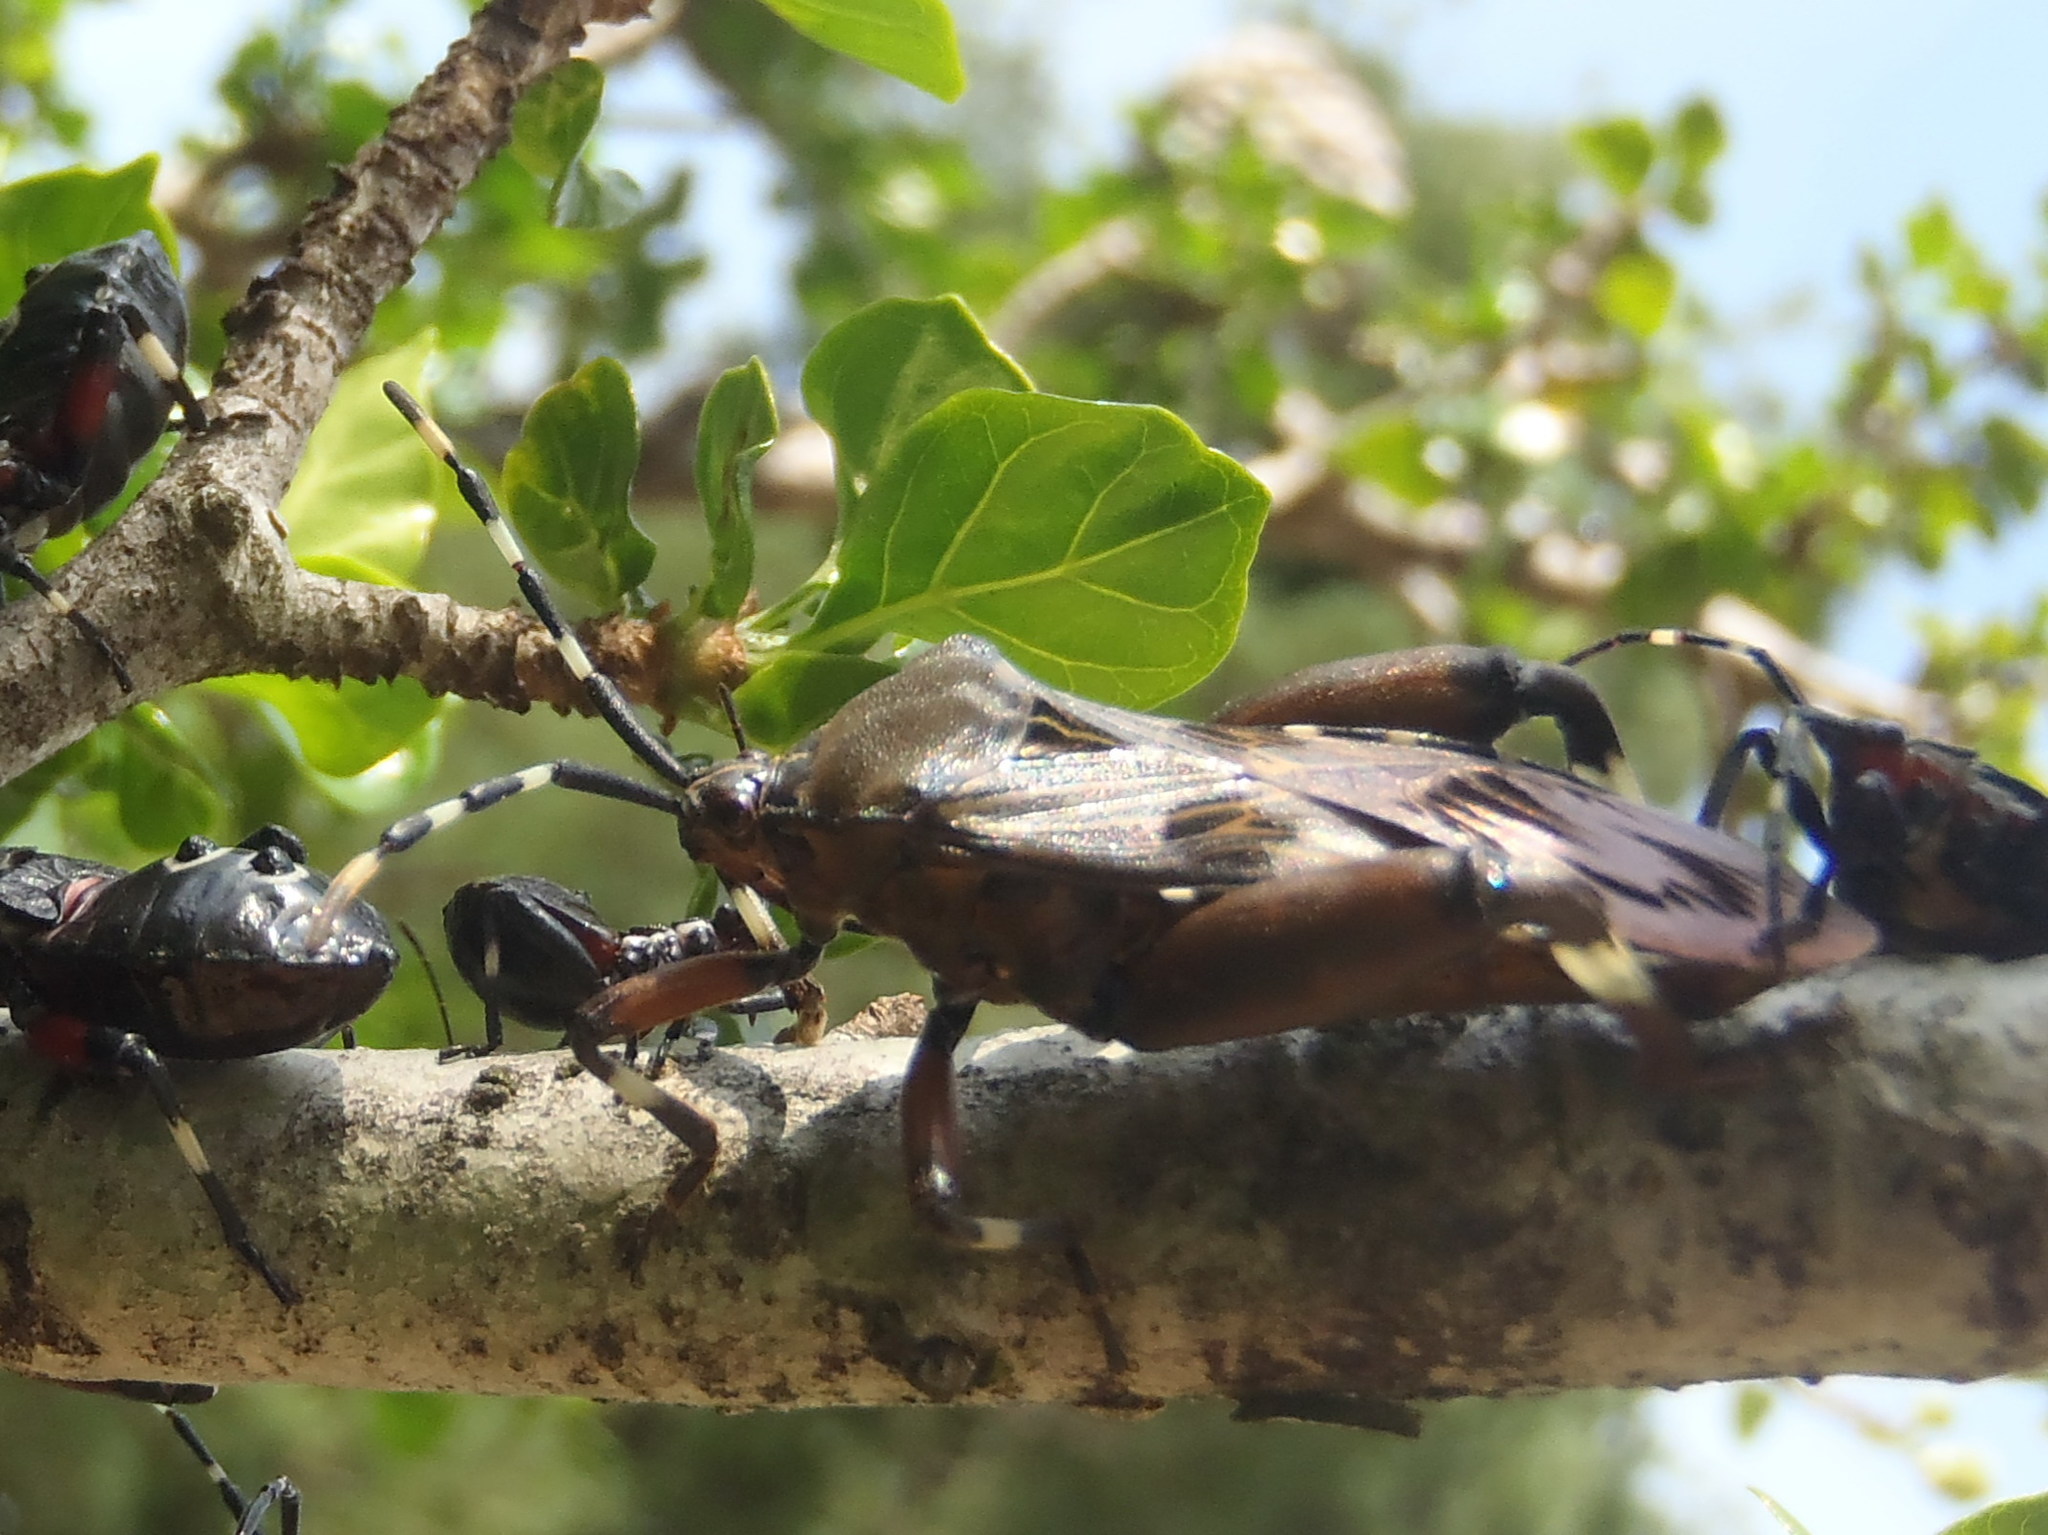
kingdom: Animalia
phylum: Arthropoda
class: Insecta
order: Hemiptera
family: Coreidae
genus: Carlisis
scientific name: Carlisis wahlbergi
